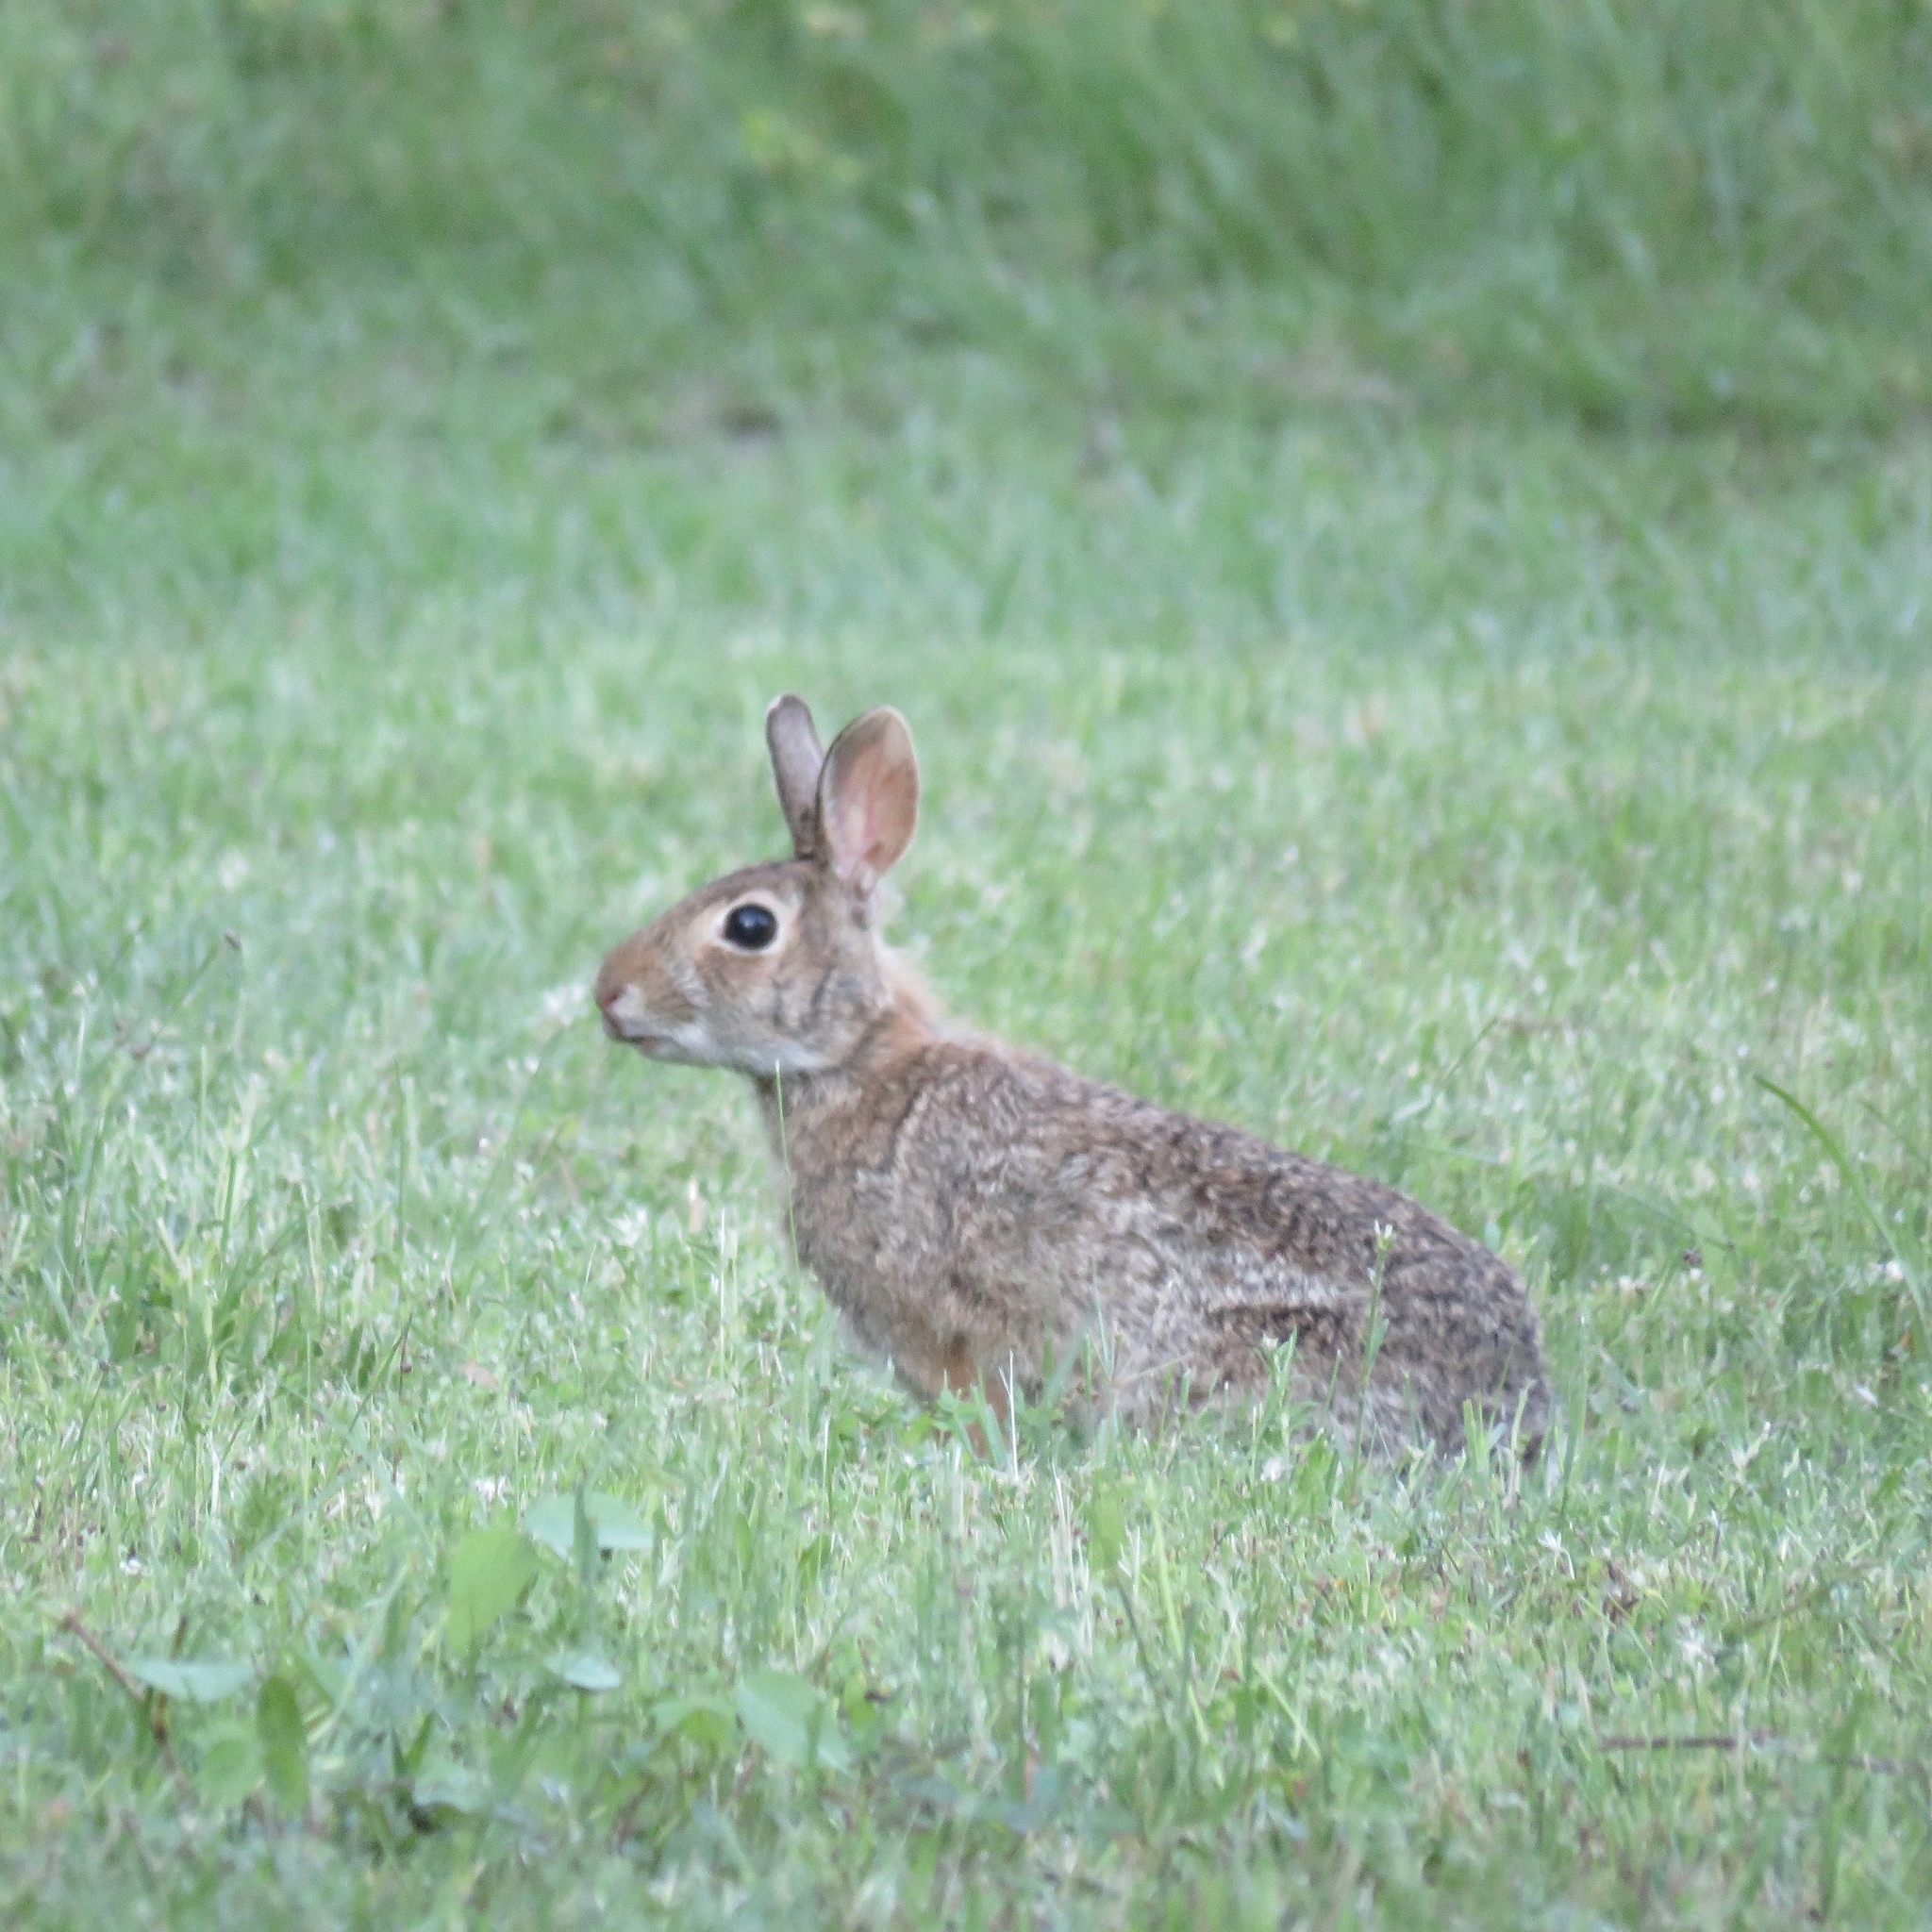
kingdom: Animalia
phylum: Chordata
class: Mammalia
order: Lagomorpha
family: Leporidae
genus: Sylvilagus
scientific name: Sylvilagus floridanus
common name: Eastern cottontail
